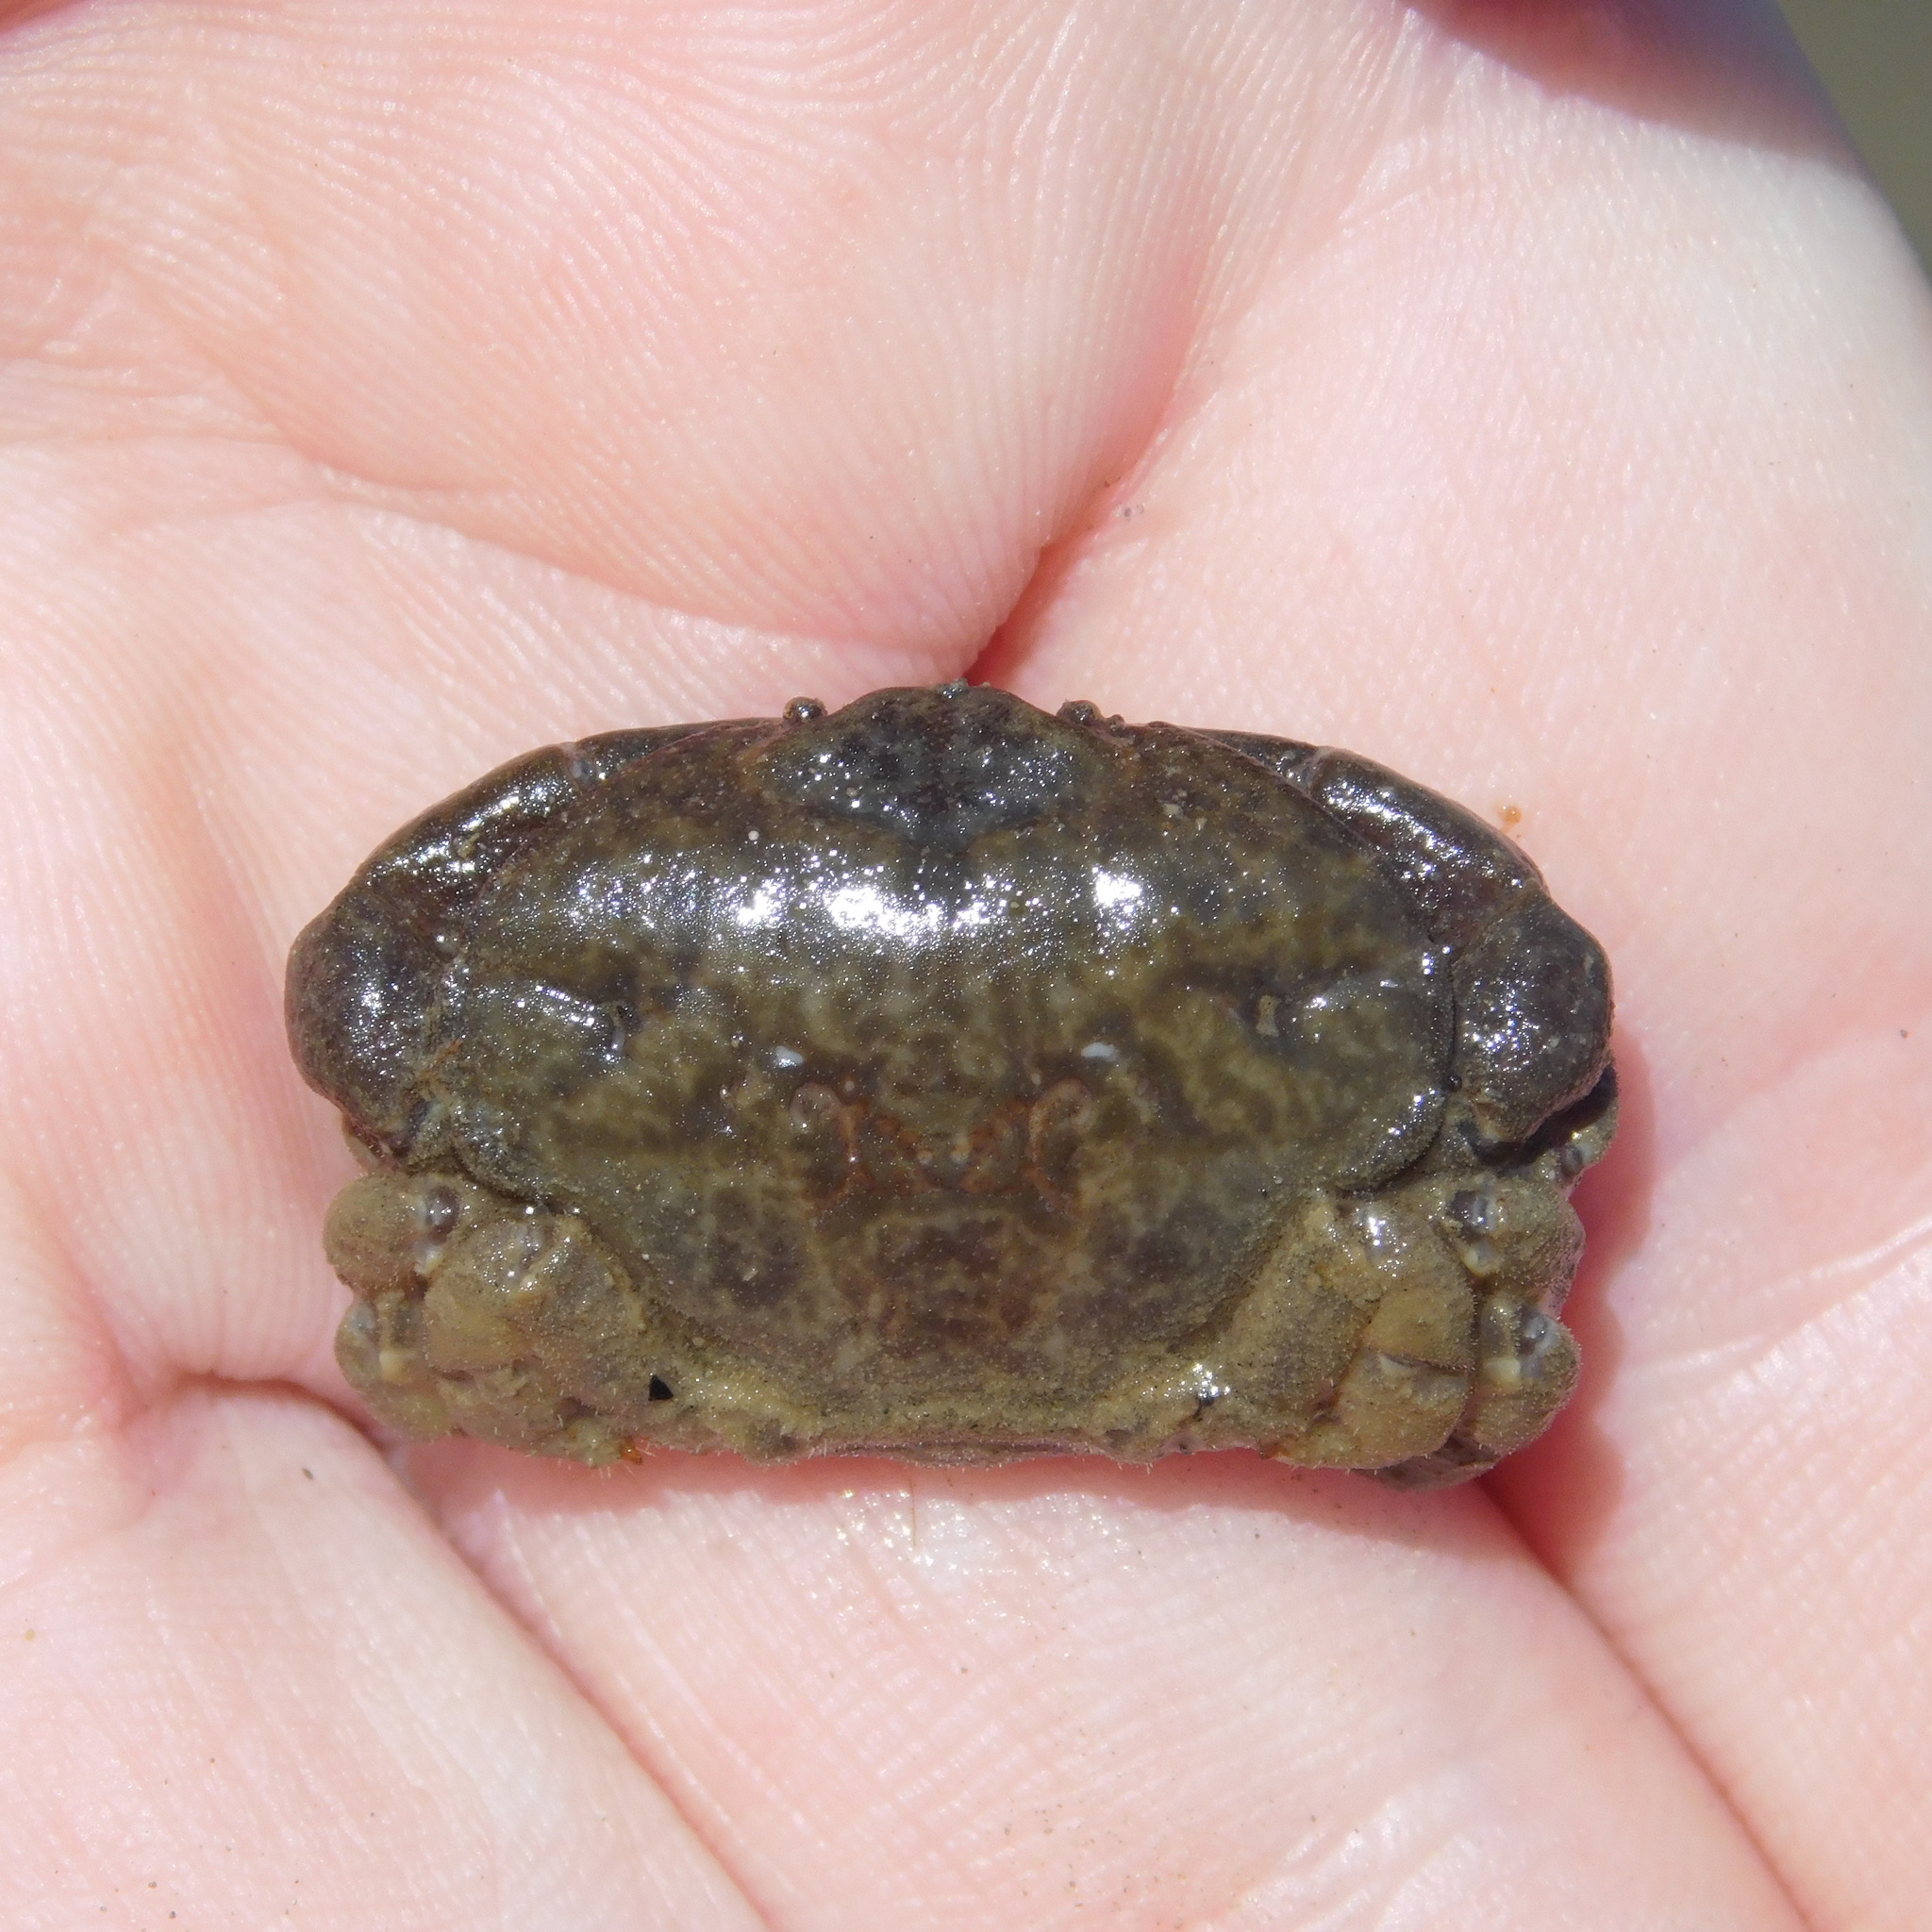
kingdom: Animalia
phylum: Arthropoda
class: Malacostraca
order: Decapoda
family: Heteroziidae
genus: Heterozius
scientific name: Heterozius rotundifrons
